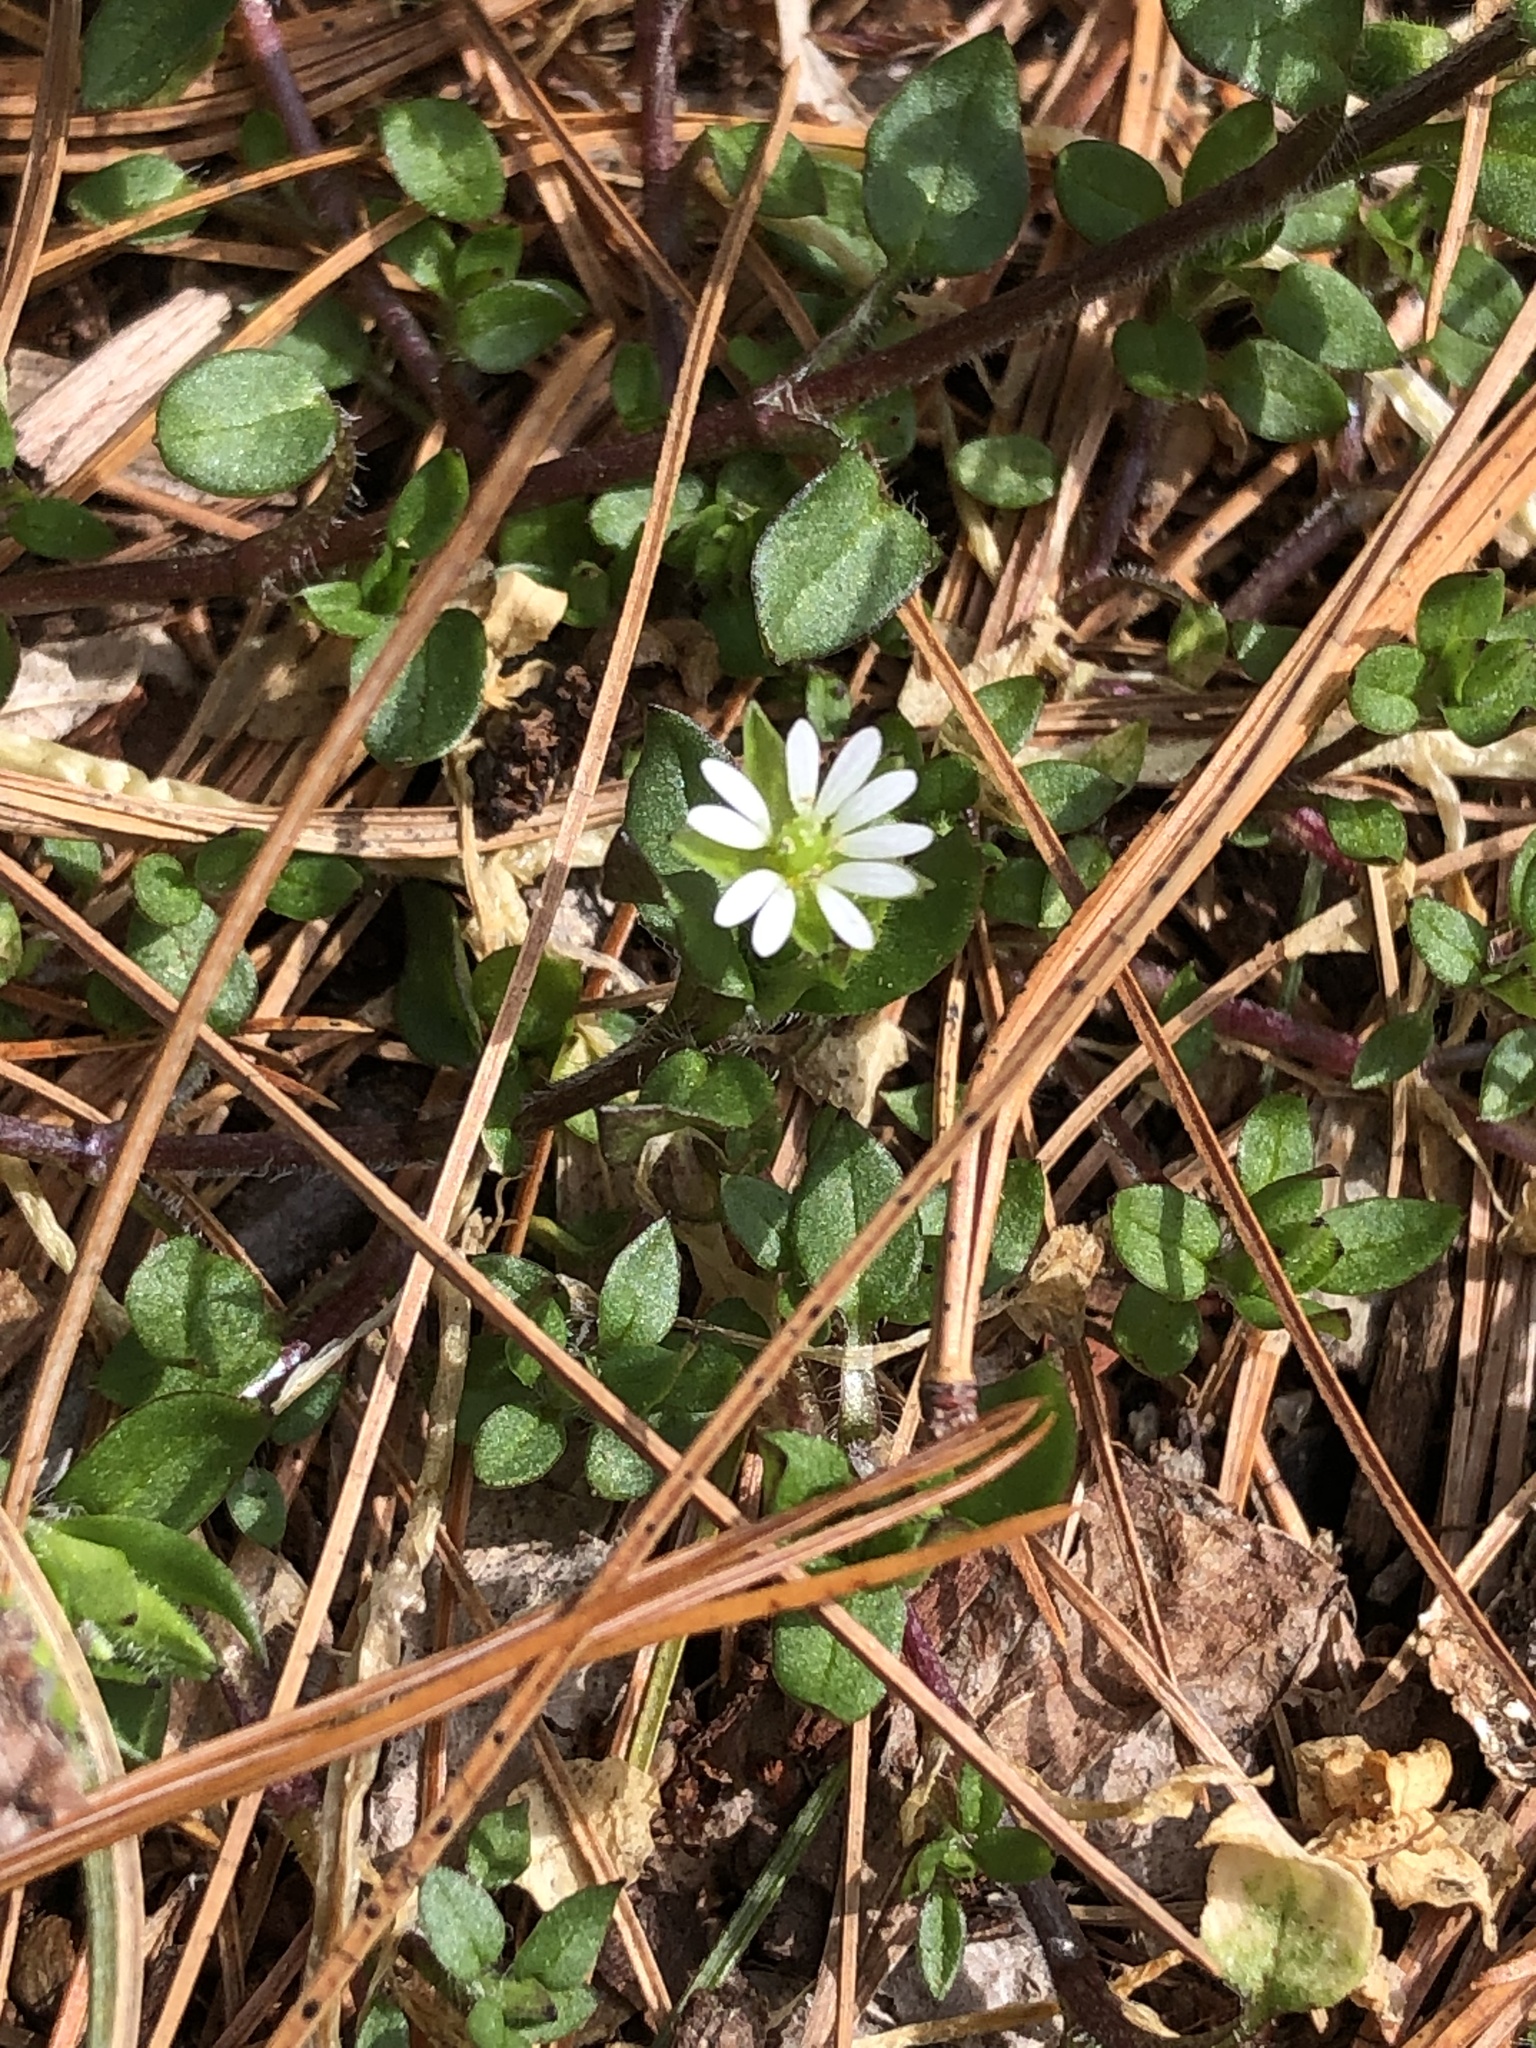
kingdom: Plantae
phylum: Tracheophyta
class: Magnoliopsida
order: Caryophyllales
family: Caryophyllaceae
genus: Stellaria
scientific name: Stellaria media
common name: Common chickweed
